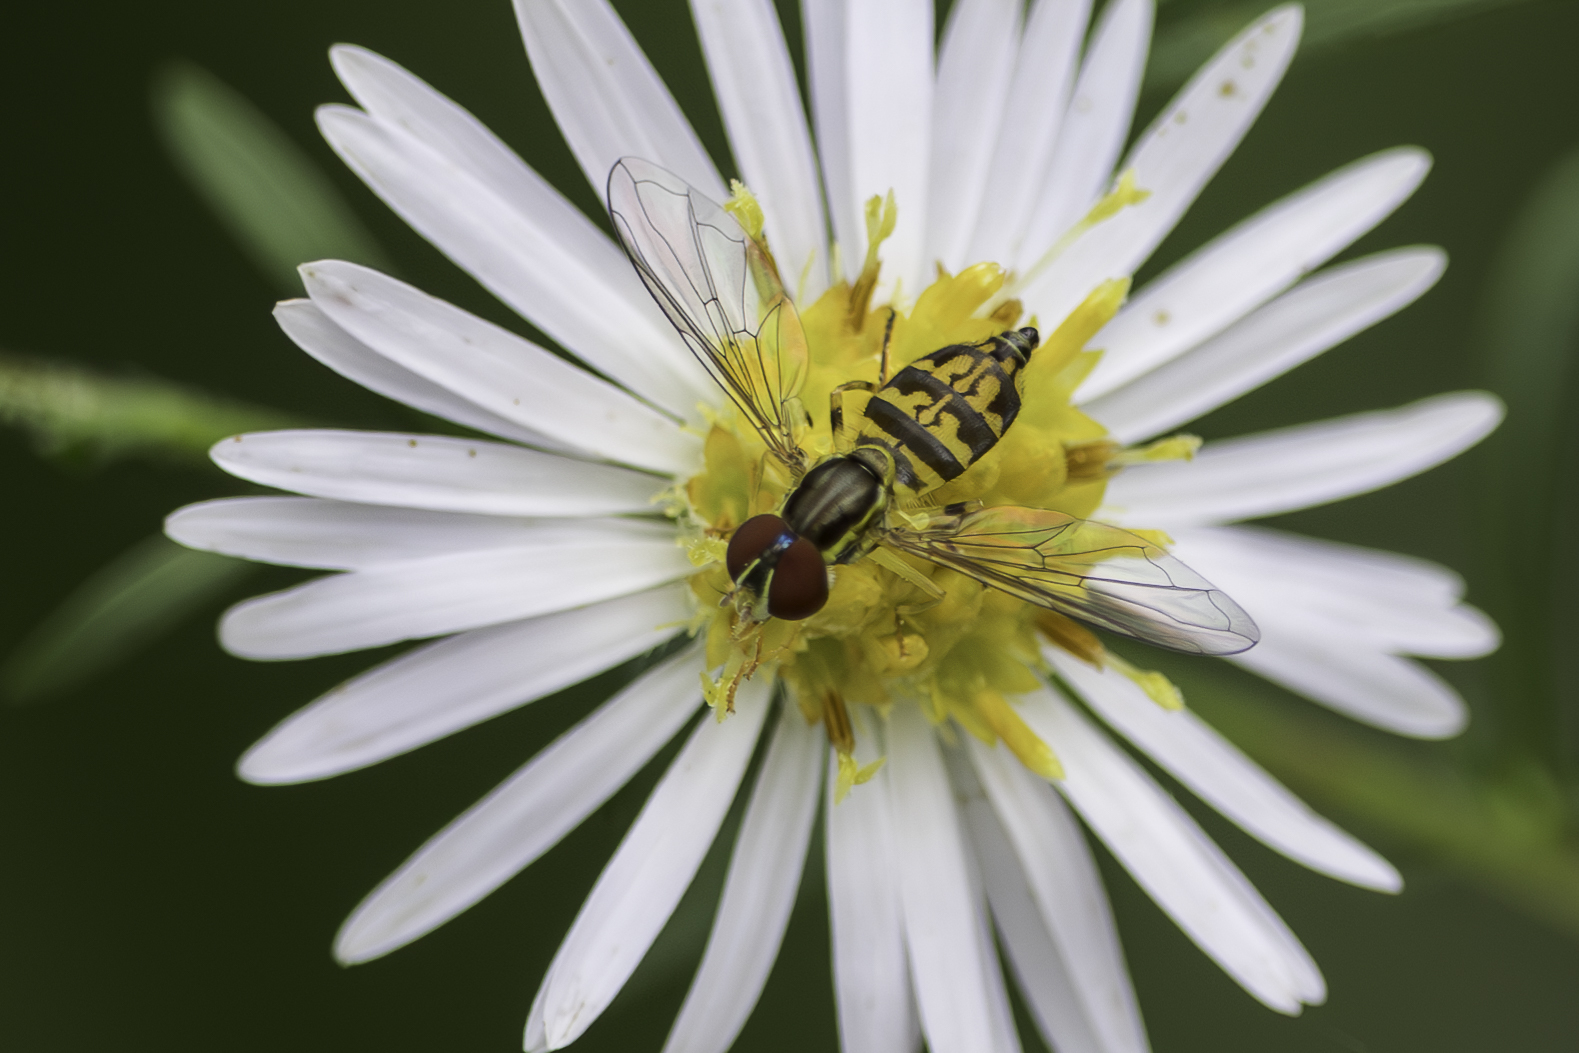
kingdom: Animalia
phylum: Arthropoda
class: Insecta
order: Diptera
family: Syrphidae
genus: Toxomerus
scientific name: Toxomerus geminatus
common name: Eastern calligrapher
